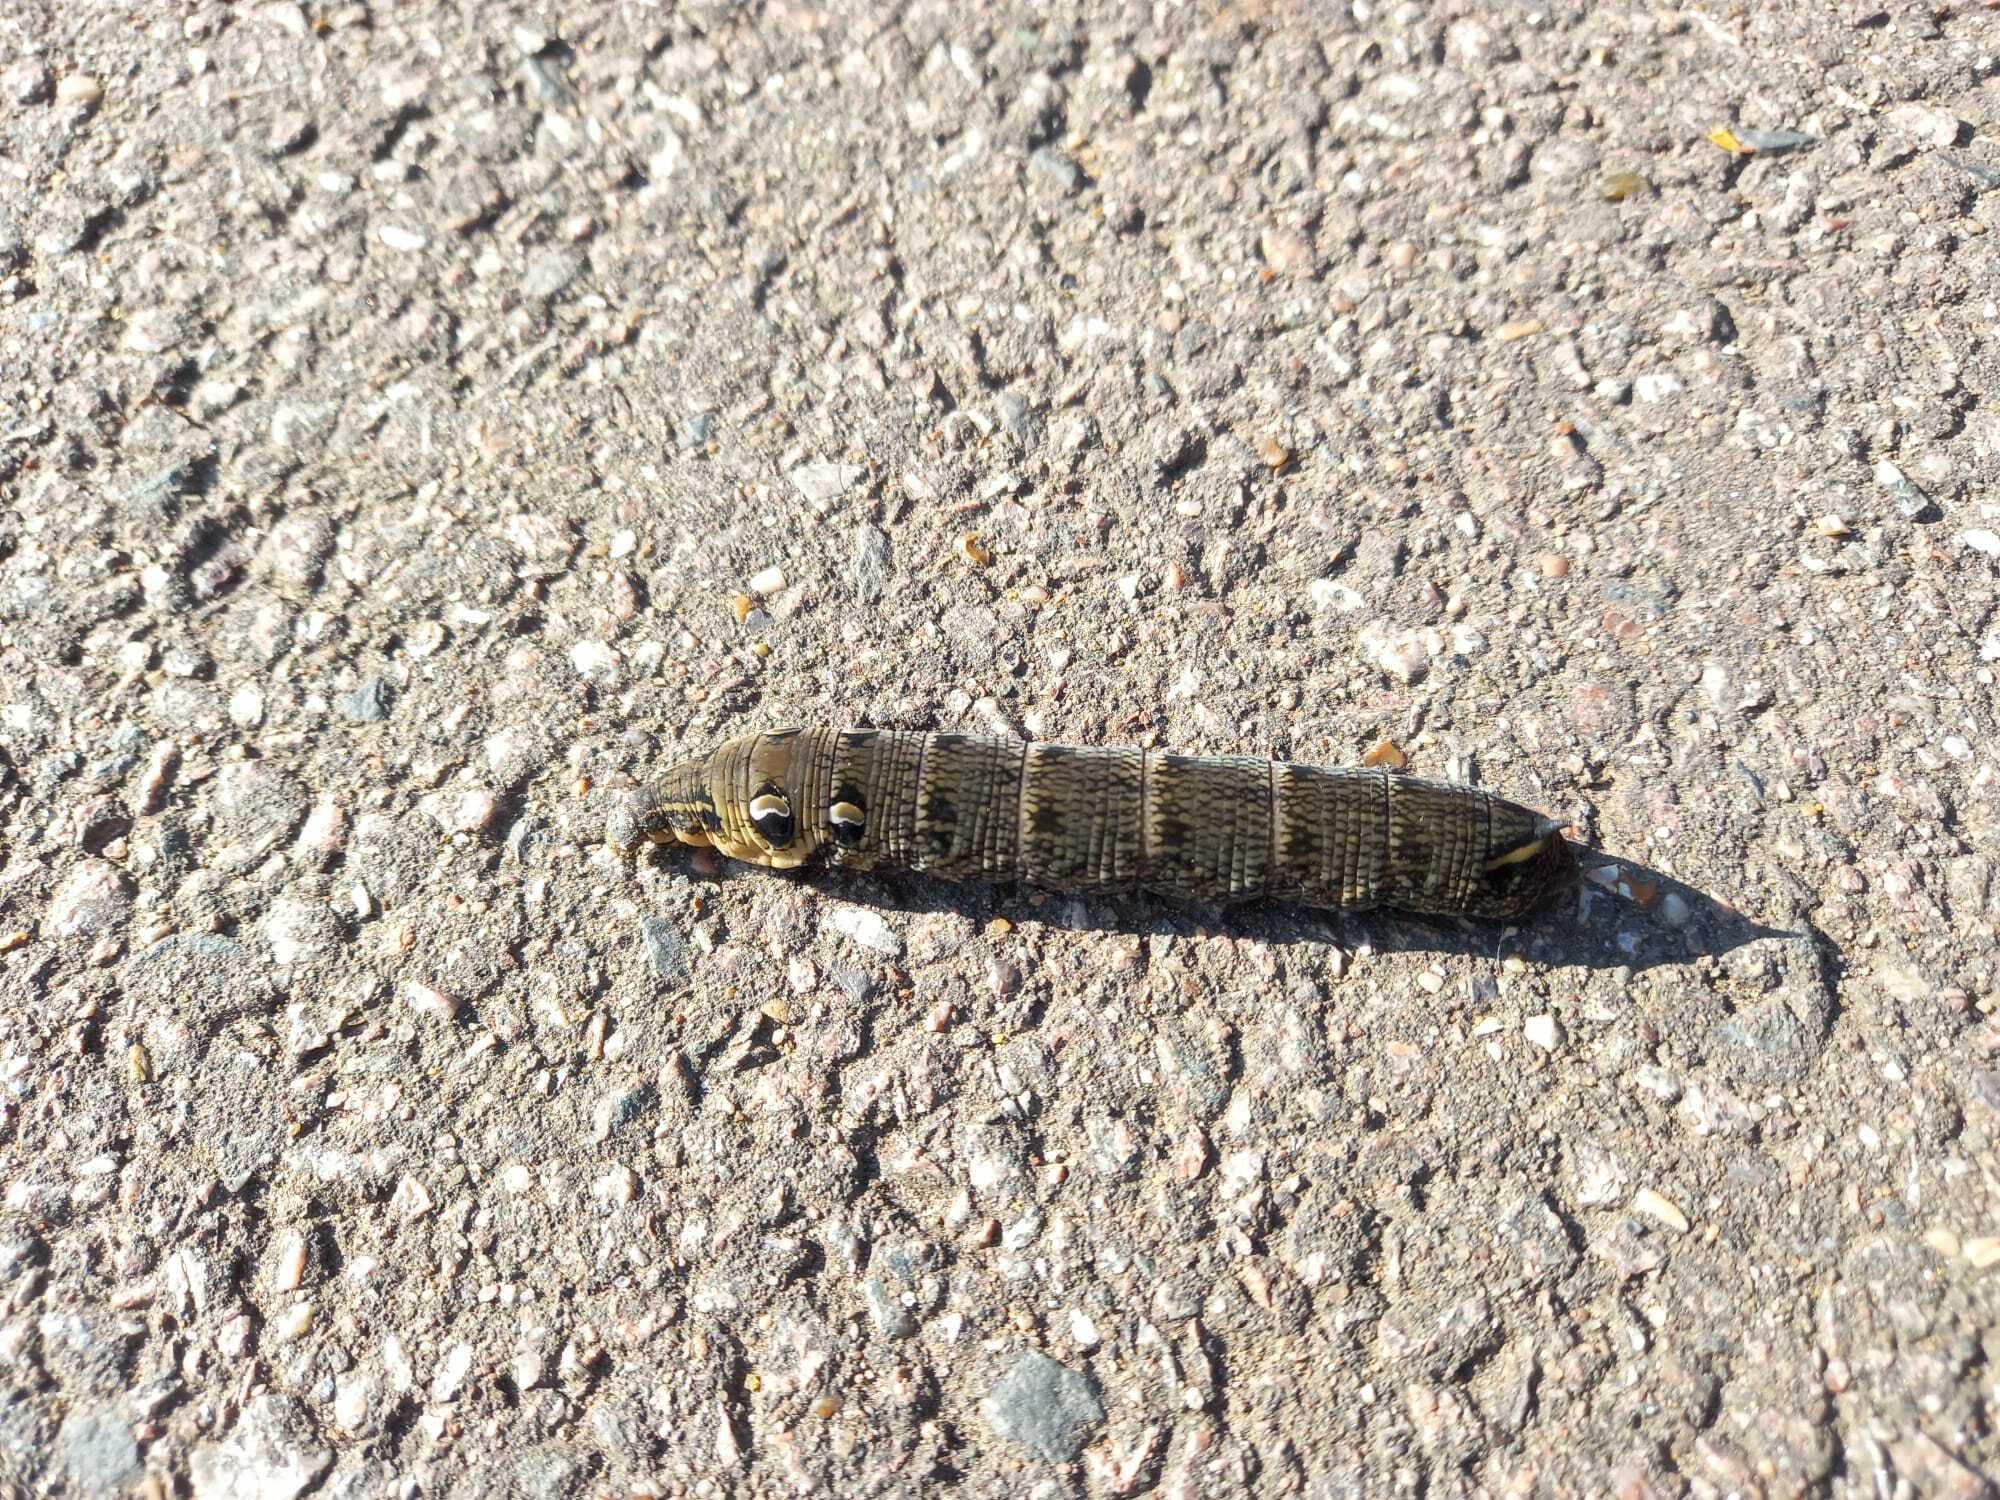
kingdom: Animalia
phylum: Arthropoda
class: Insecta
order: Lepidoptera
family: Sphingidae
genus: Deilephila
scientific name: Deilephila elpenor
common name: Elephant hawk-moth
